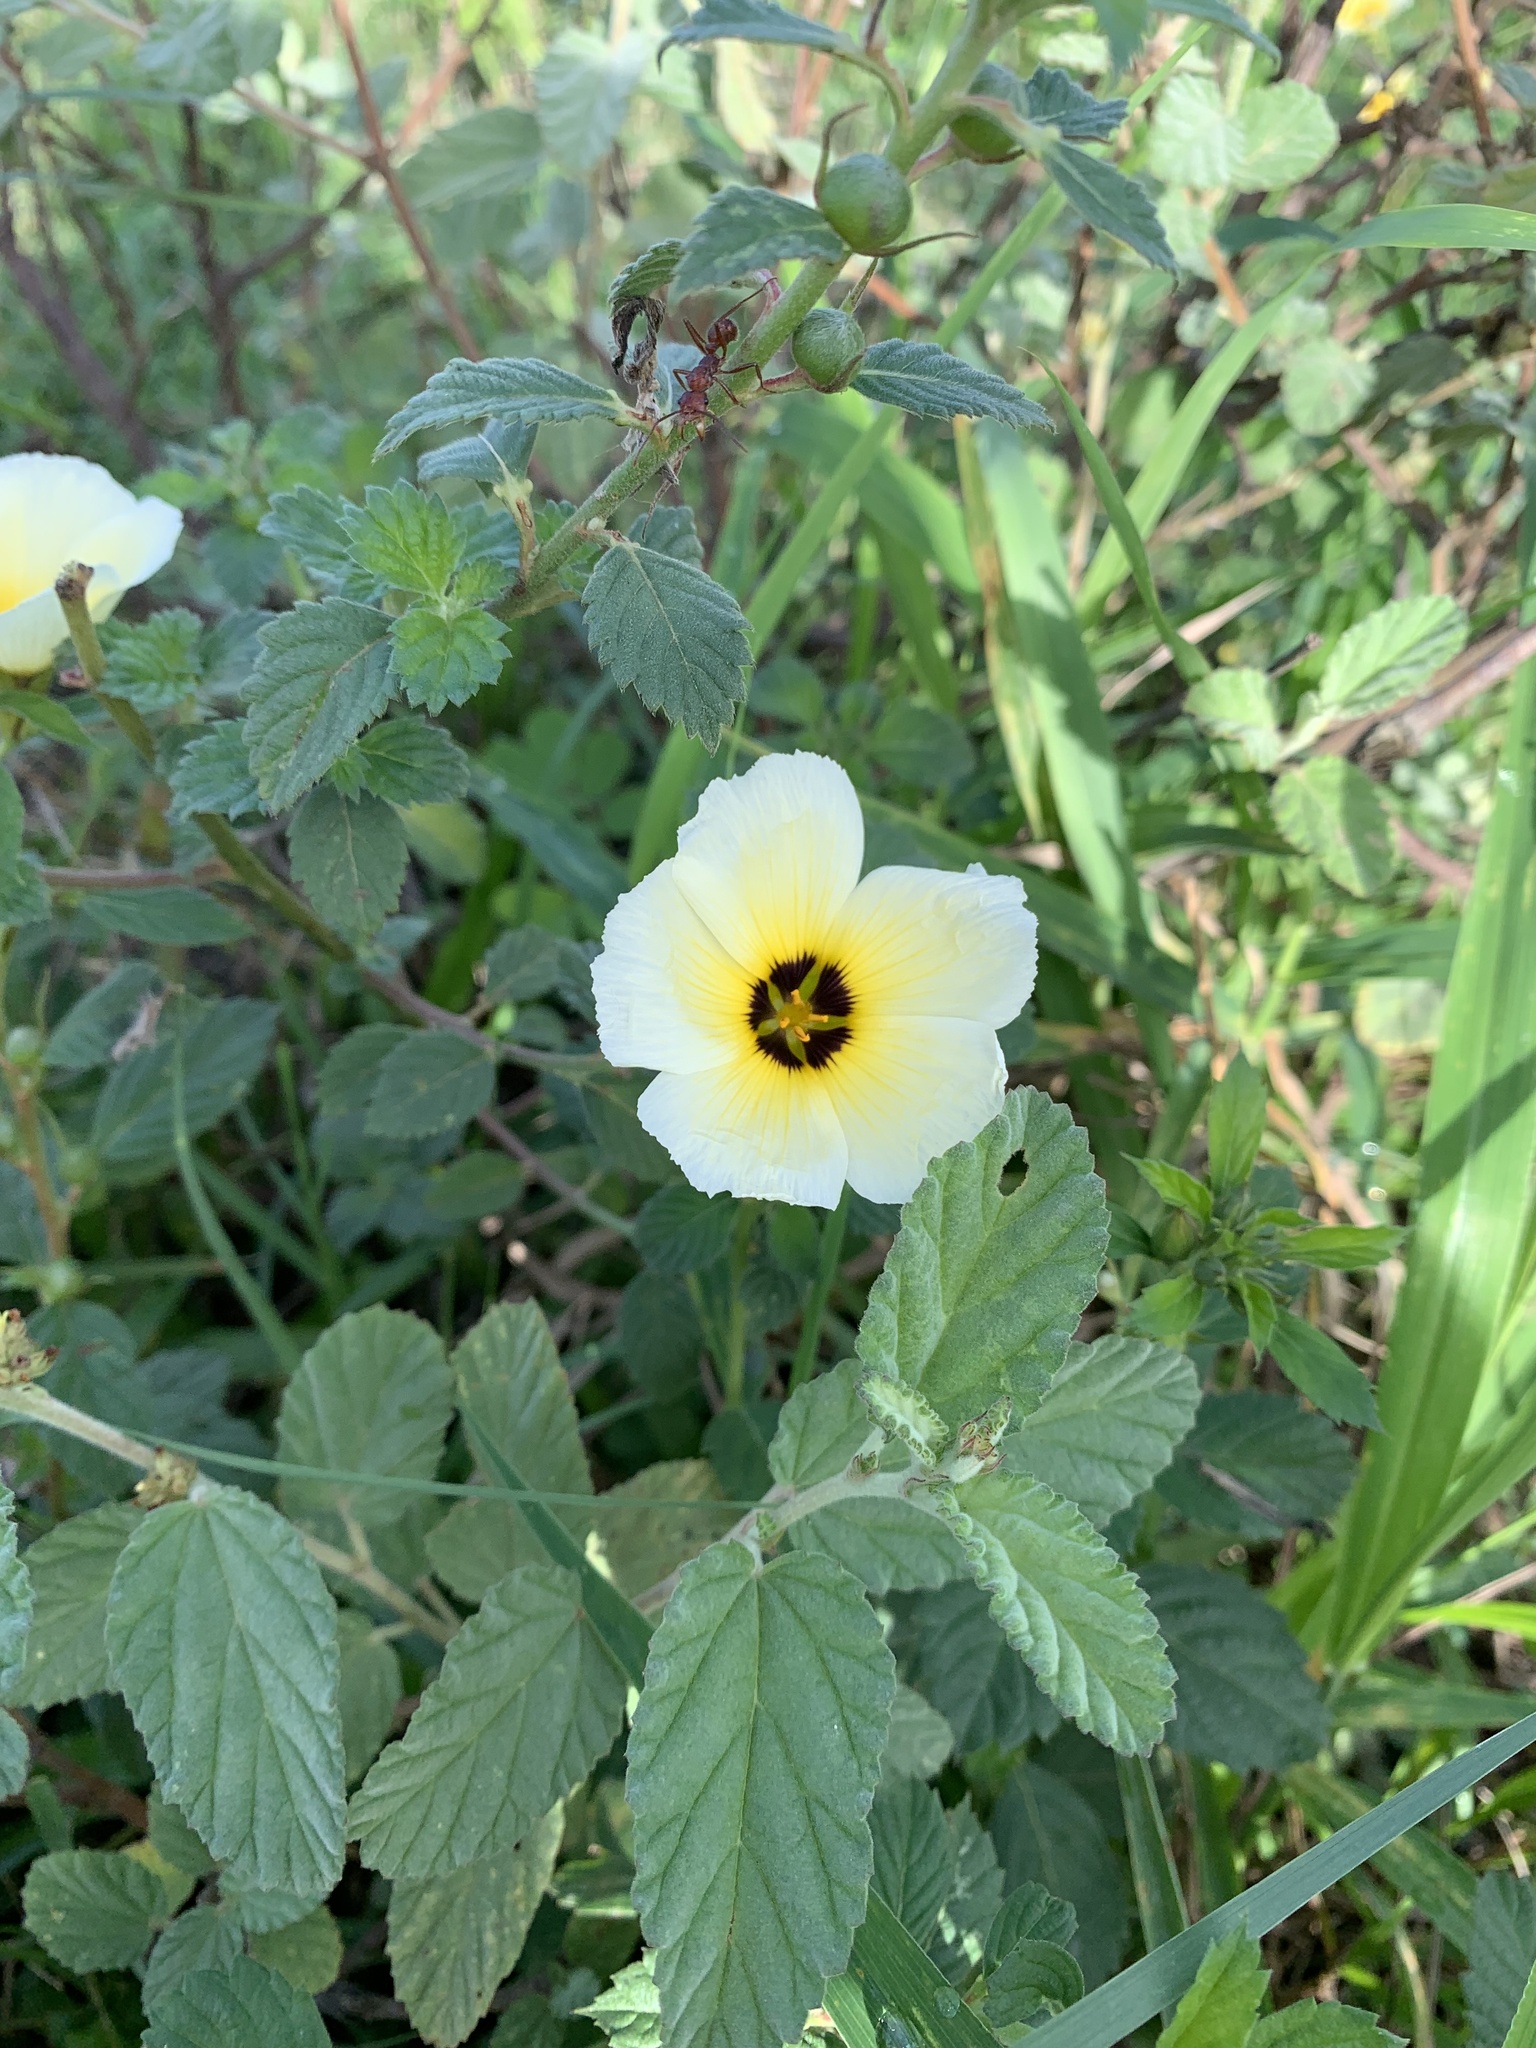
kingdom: Plantae
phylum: Tracheophyta
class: Magnoliopsida
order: Malpighiales
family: Turneraceae
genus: Turnera
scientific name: Turnera subulata
